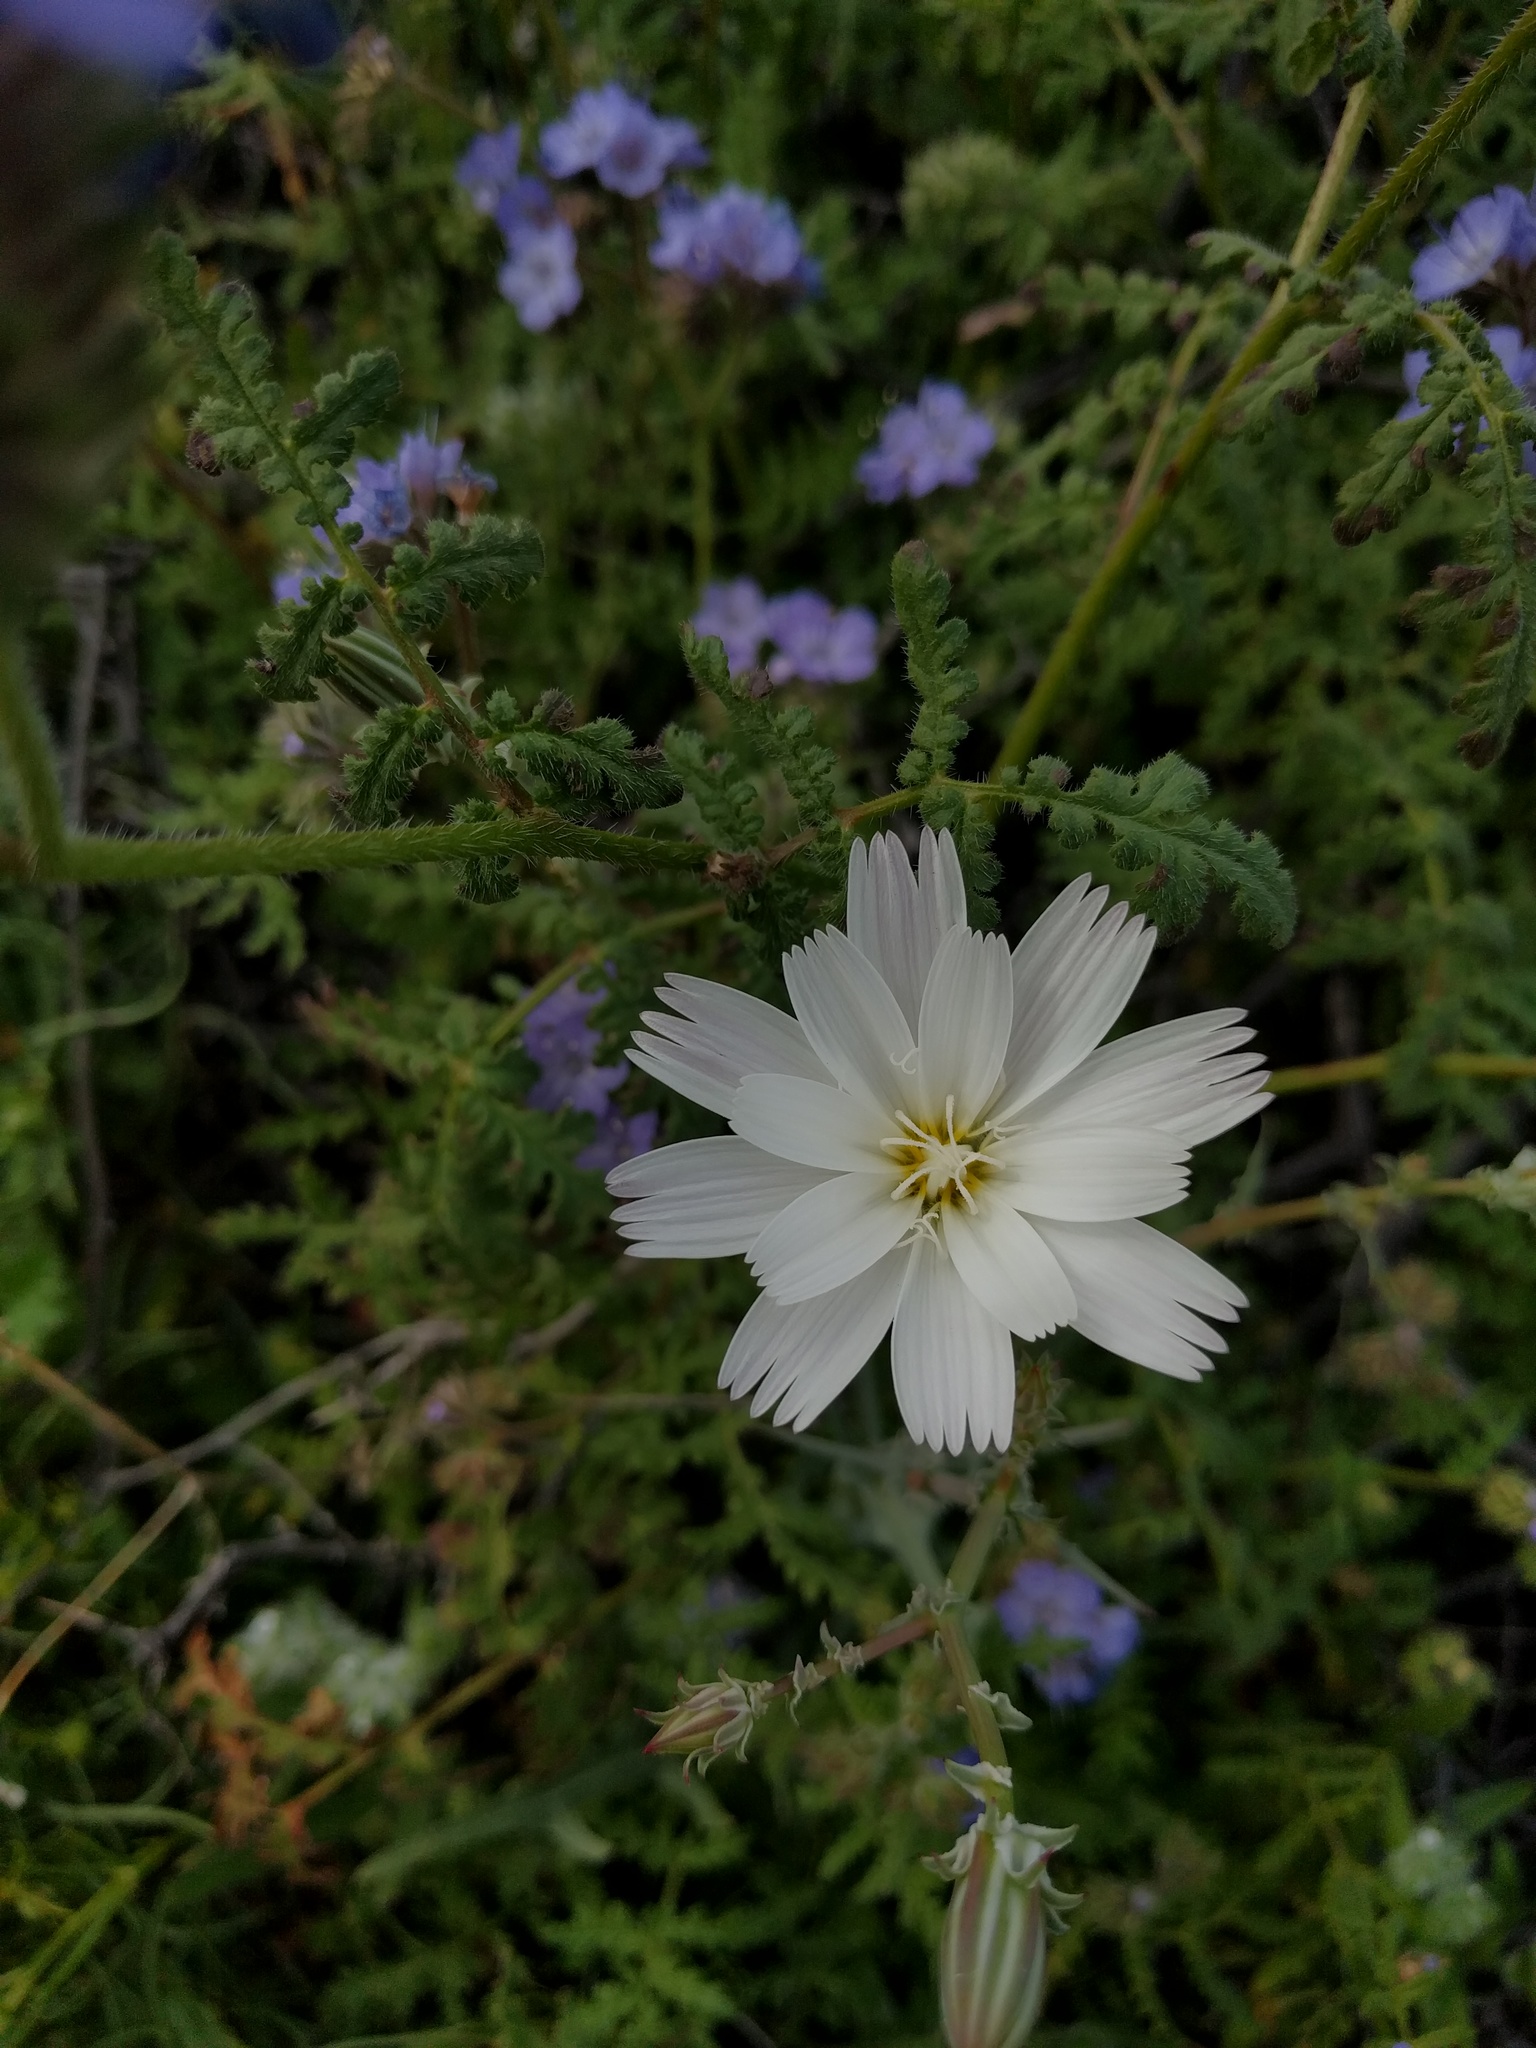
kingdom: Plantae
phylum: Tracheophyta
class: Magnoliopsida
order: Asterales
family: Asteraceae
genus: Rafinesquia
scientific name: Rafinesquia neomexicana
